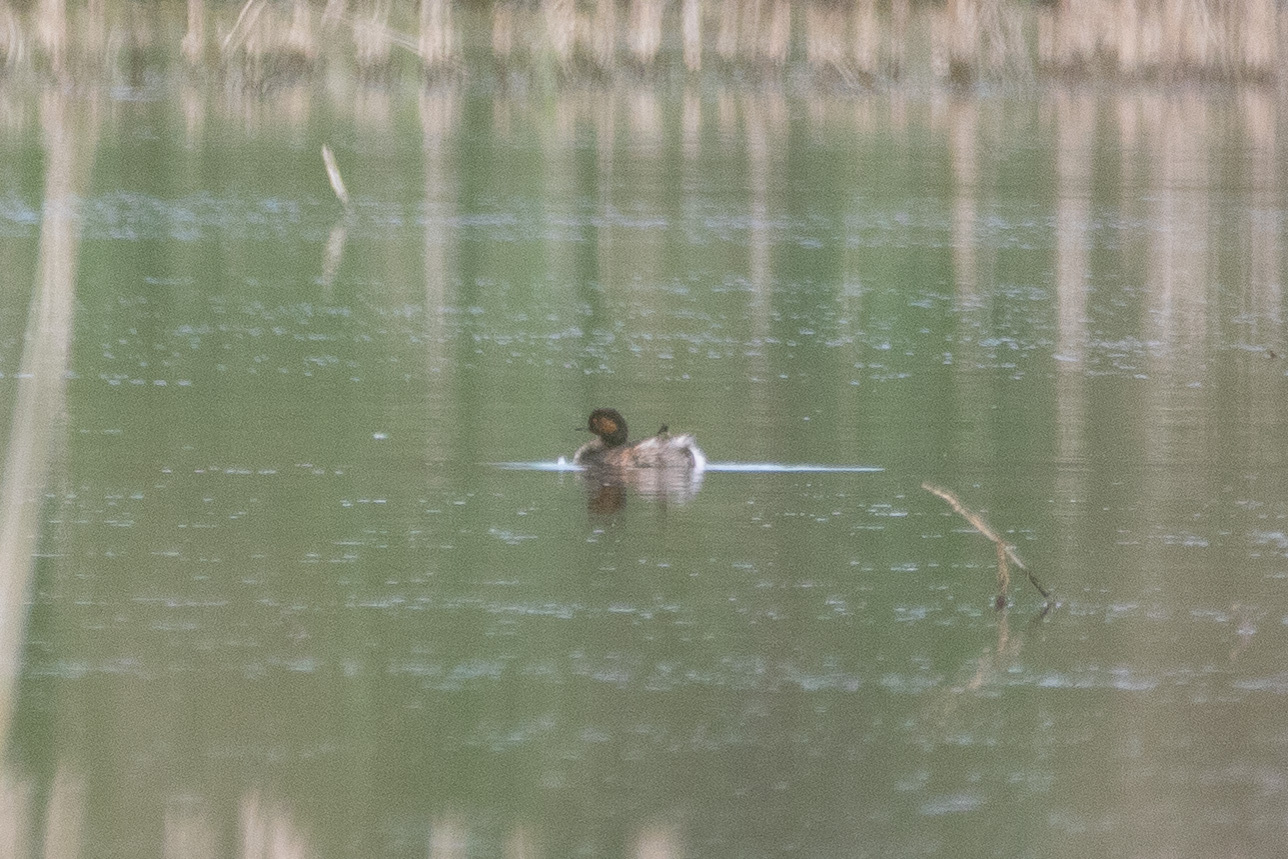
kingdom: Animalia
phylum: Chordata
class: Aves
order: Podicipediformes
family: Podicipedidae
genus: Podiceps
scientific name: Podiceps nigricollis
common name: Black-necked grebe
